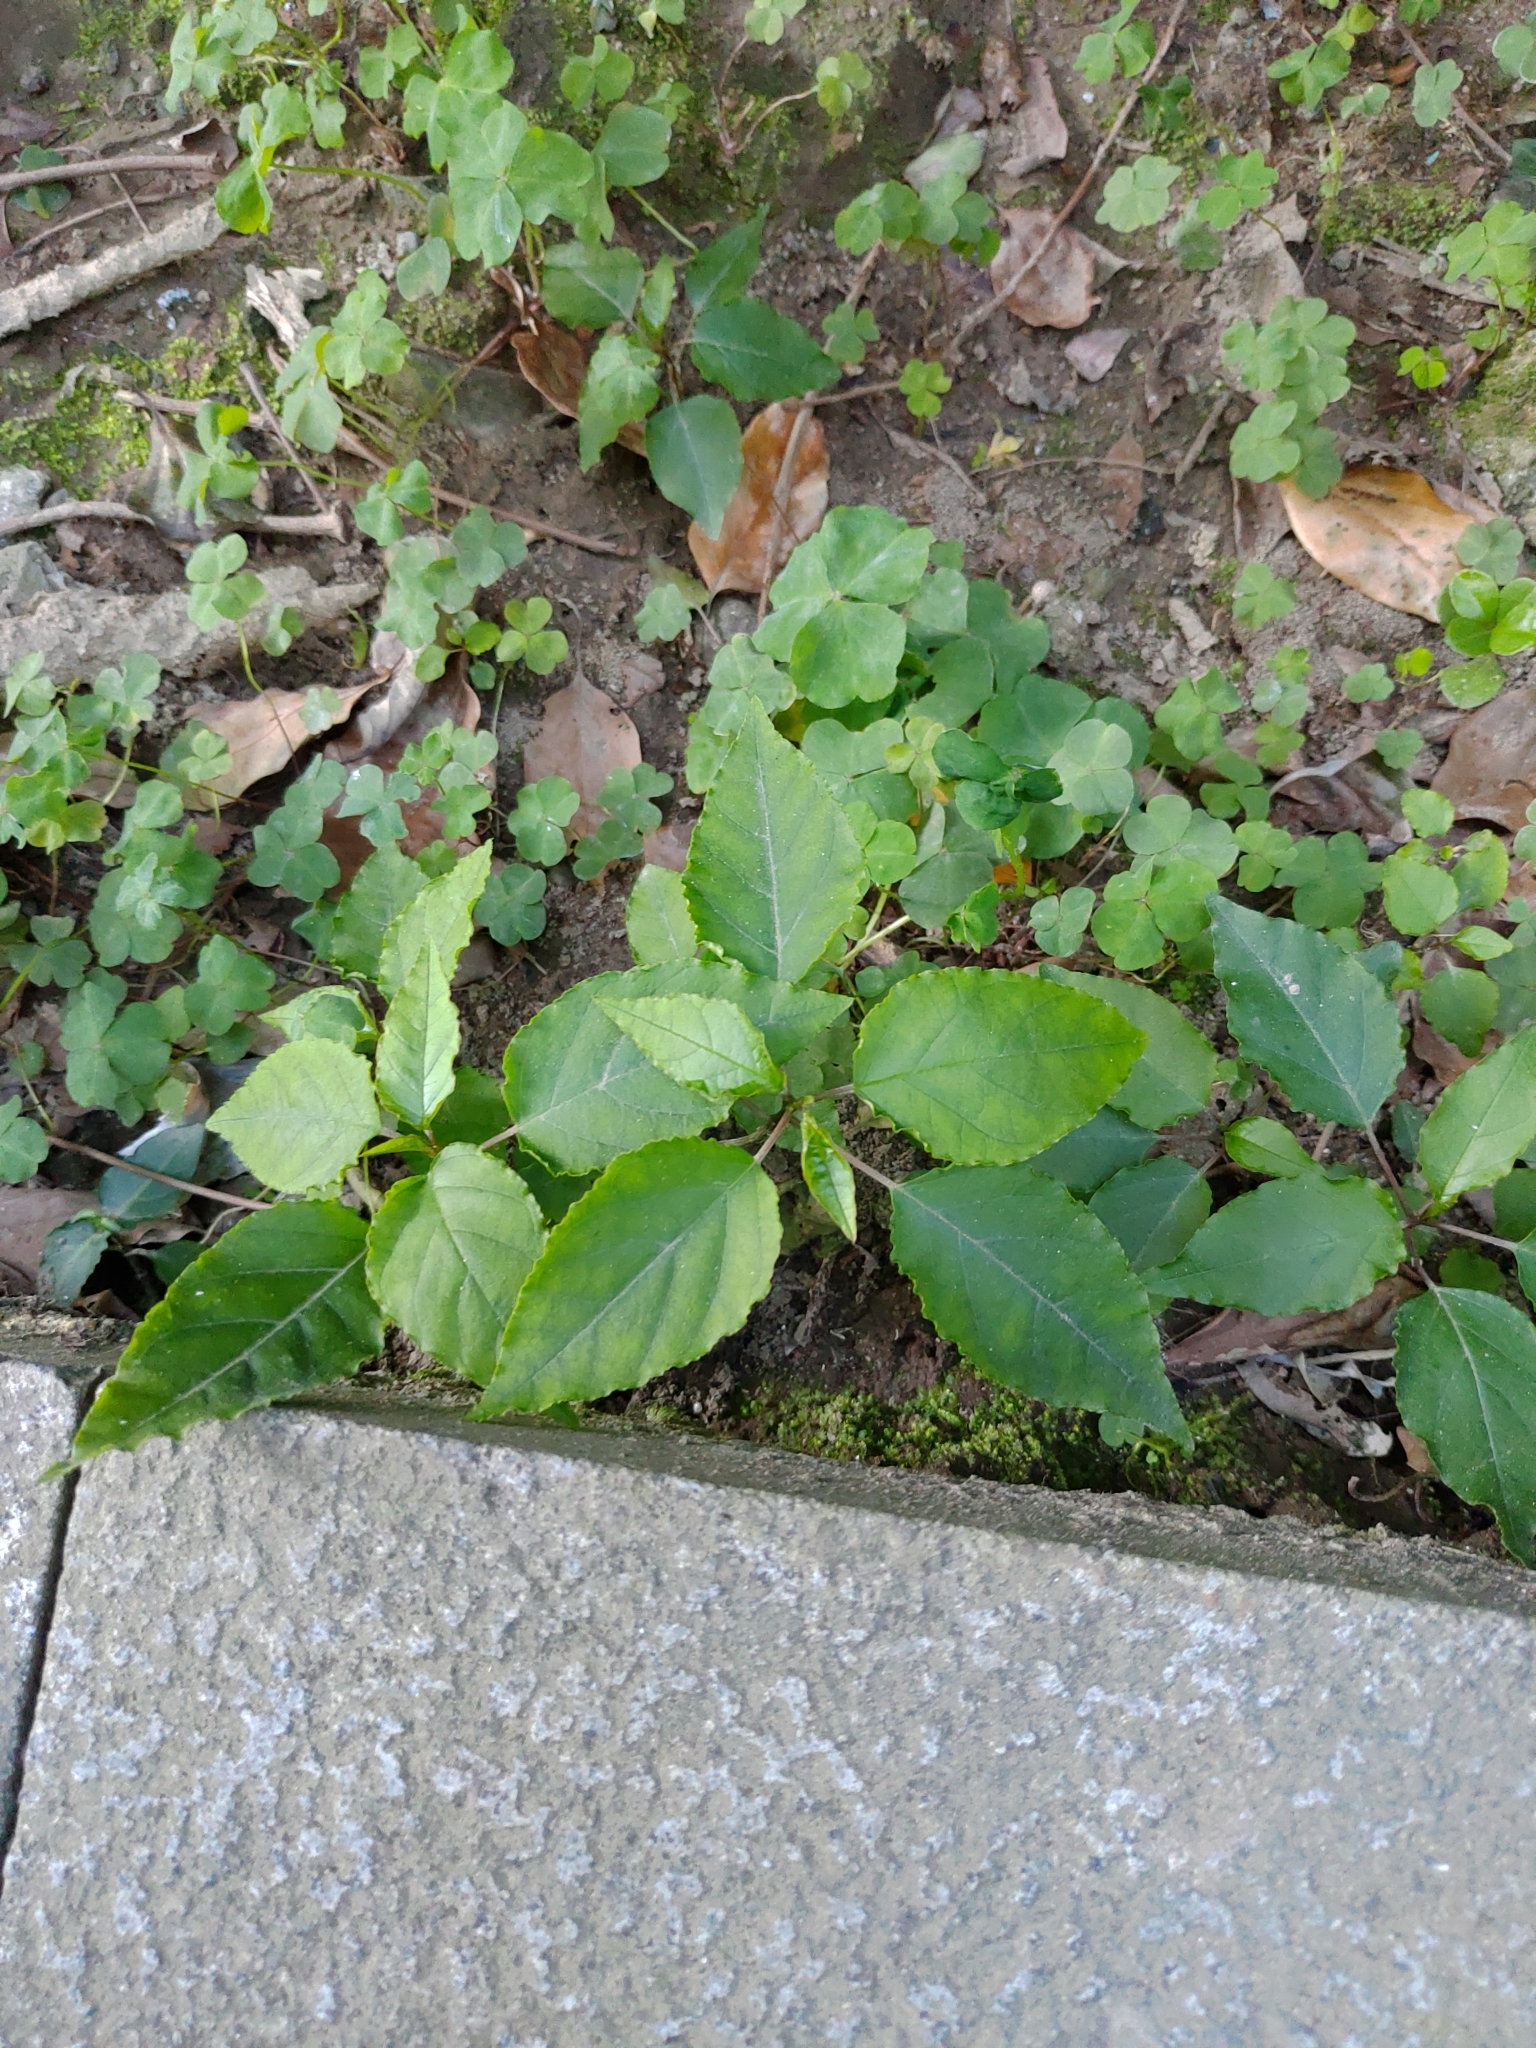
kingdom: Plantae
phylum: Tracheophyta
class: Magnoliopsida
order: Caryophyllales
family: Phytolaccaceae
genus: Rivina
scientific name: Rivina humilis
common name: Rougeplant
